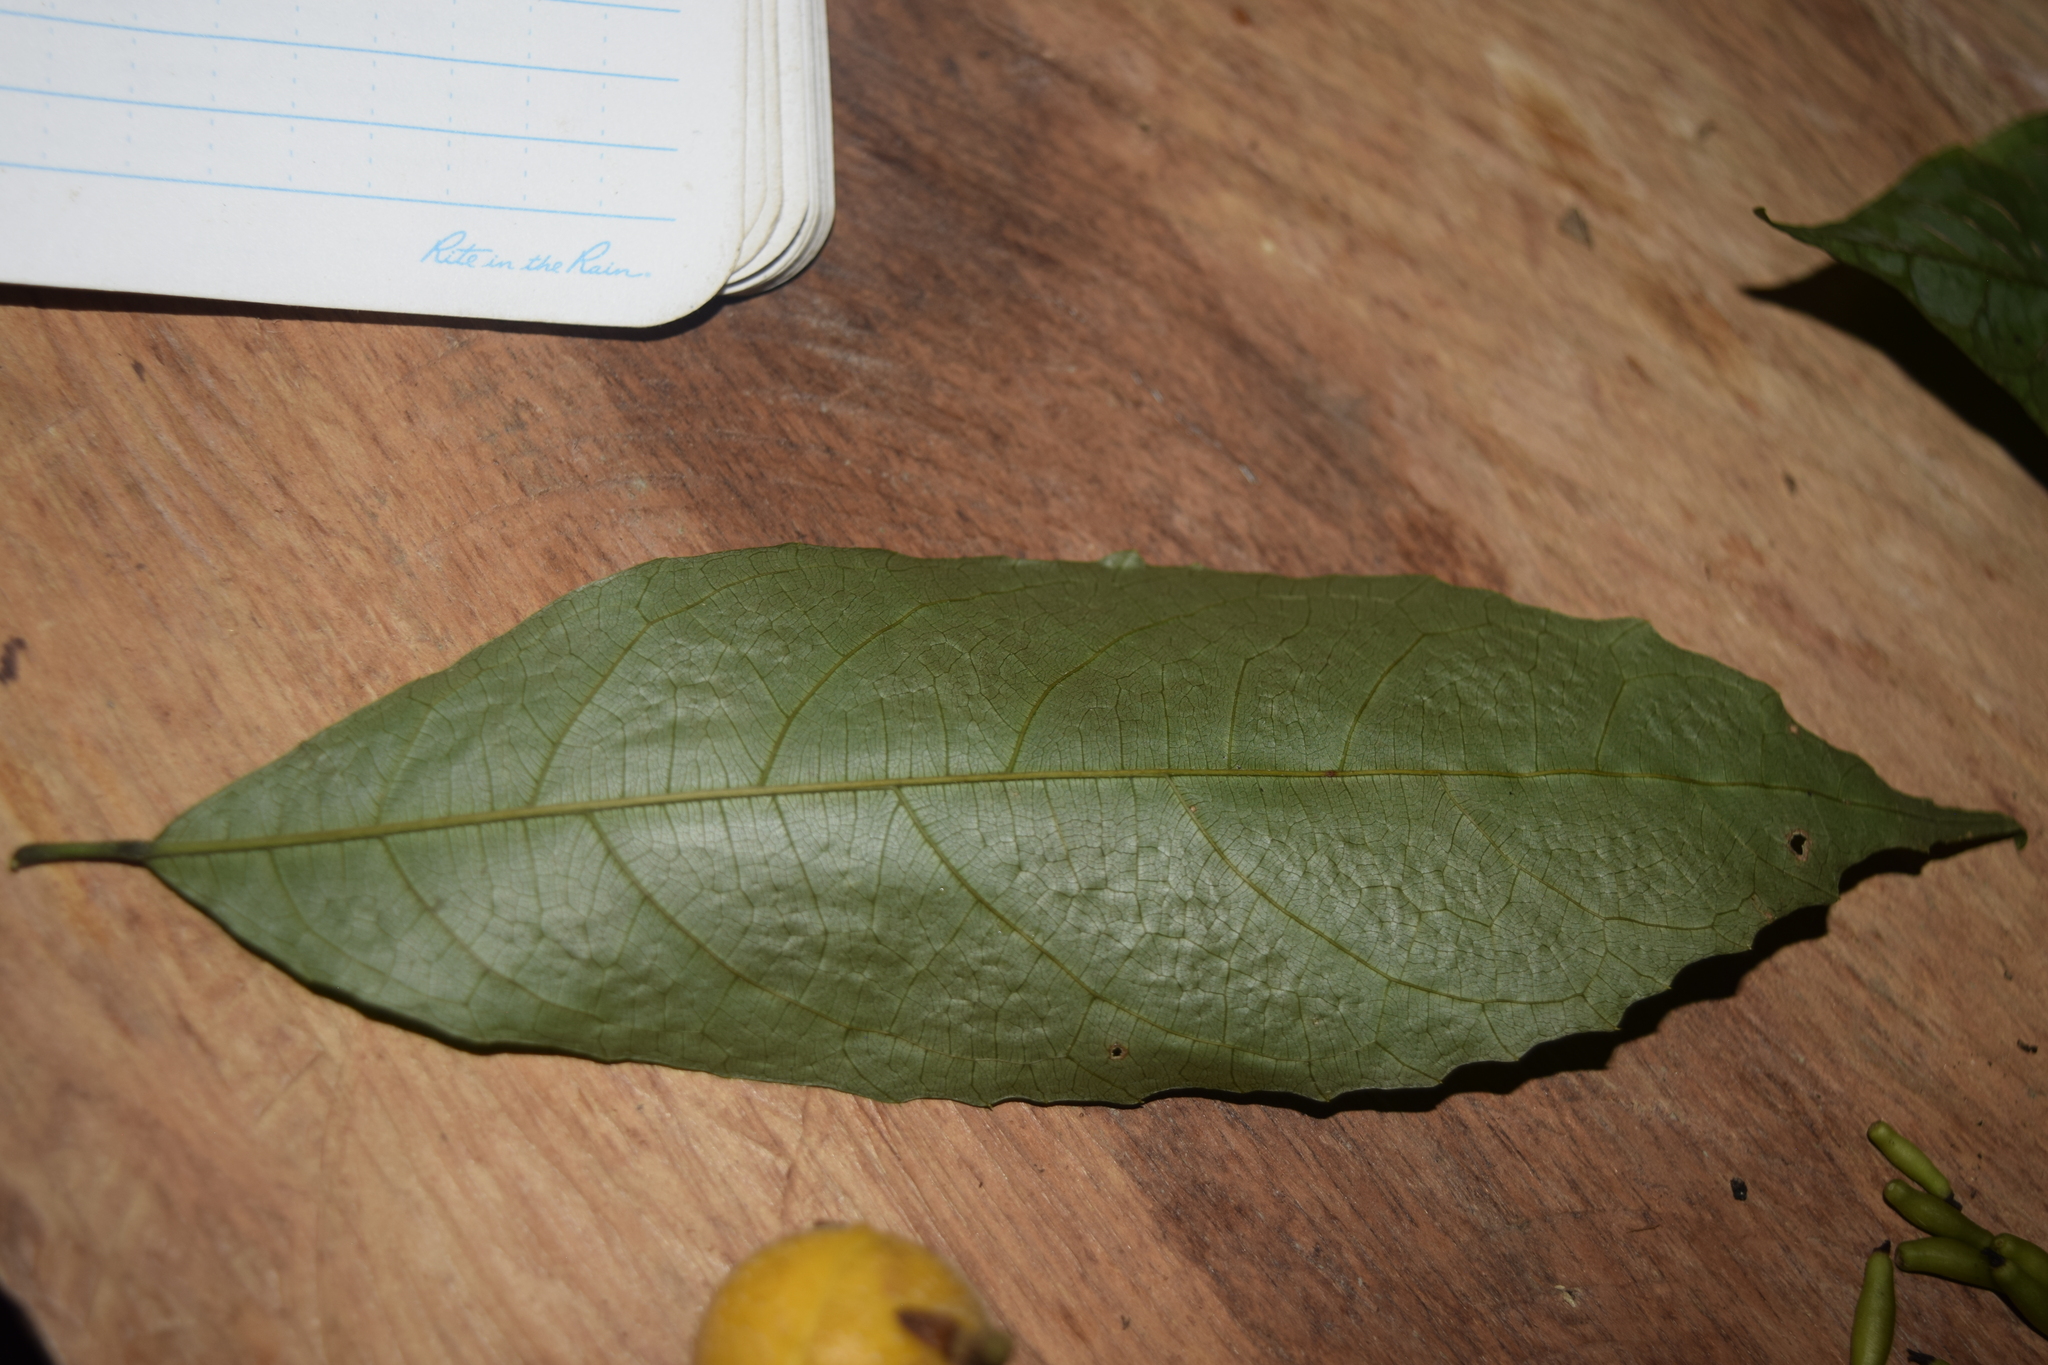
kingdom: Plantae
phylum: Tracheophyta
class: Magnoliopsida
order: Malpighiales
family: Achariaceae
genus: Mayna
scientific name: Mayna yasuniana
